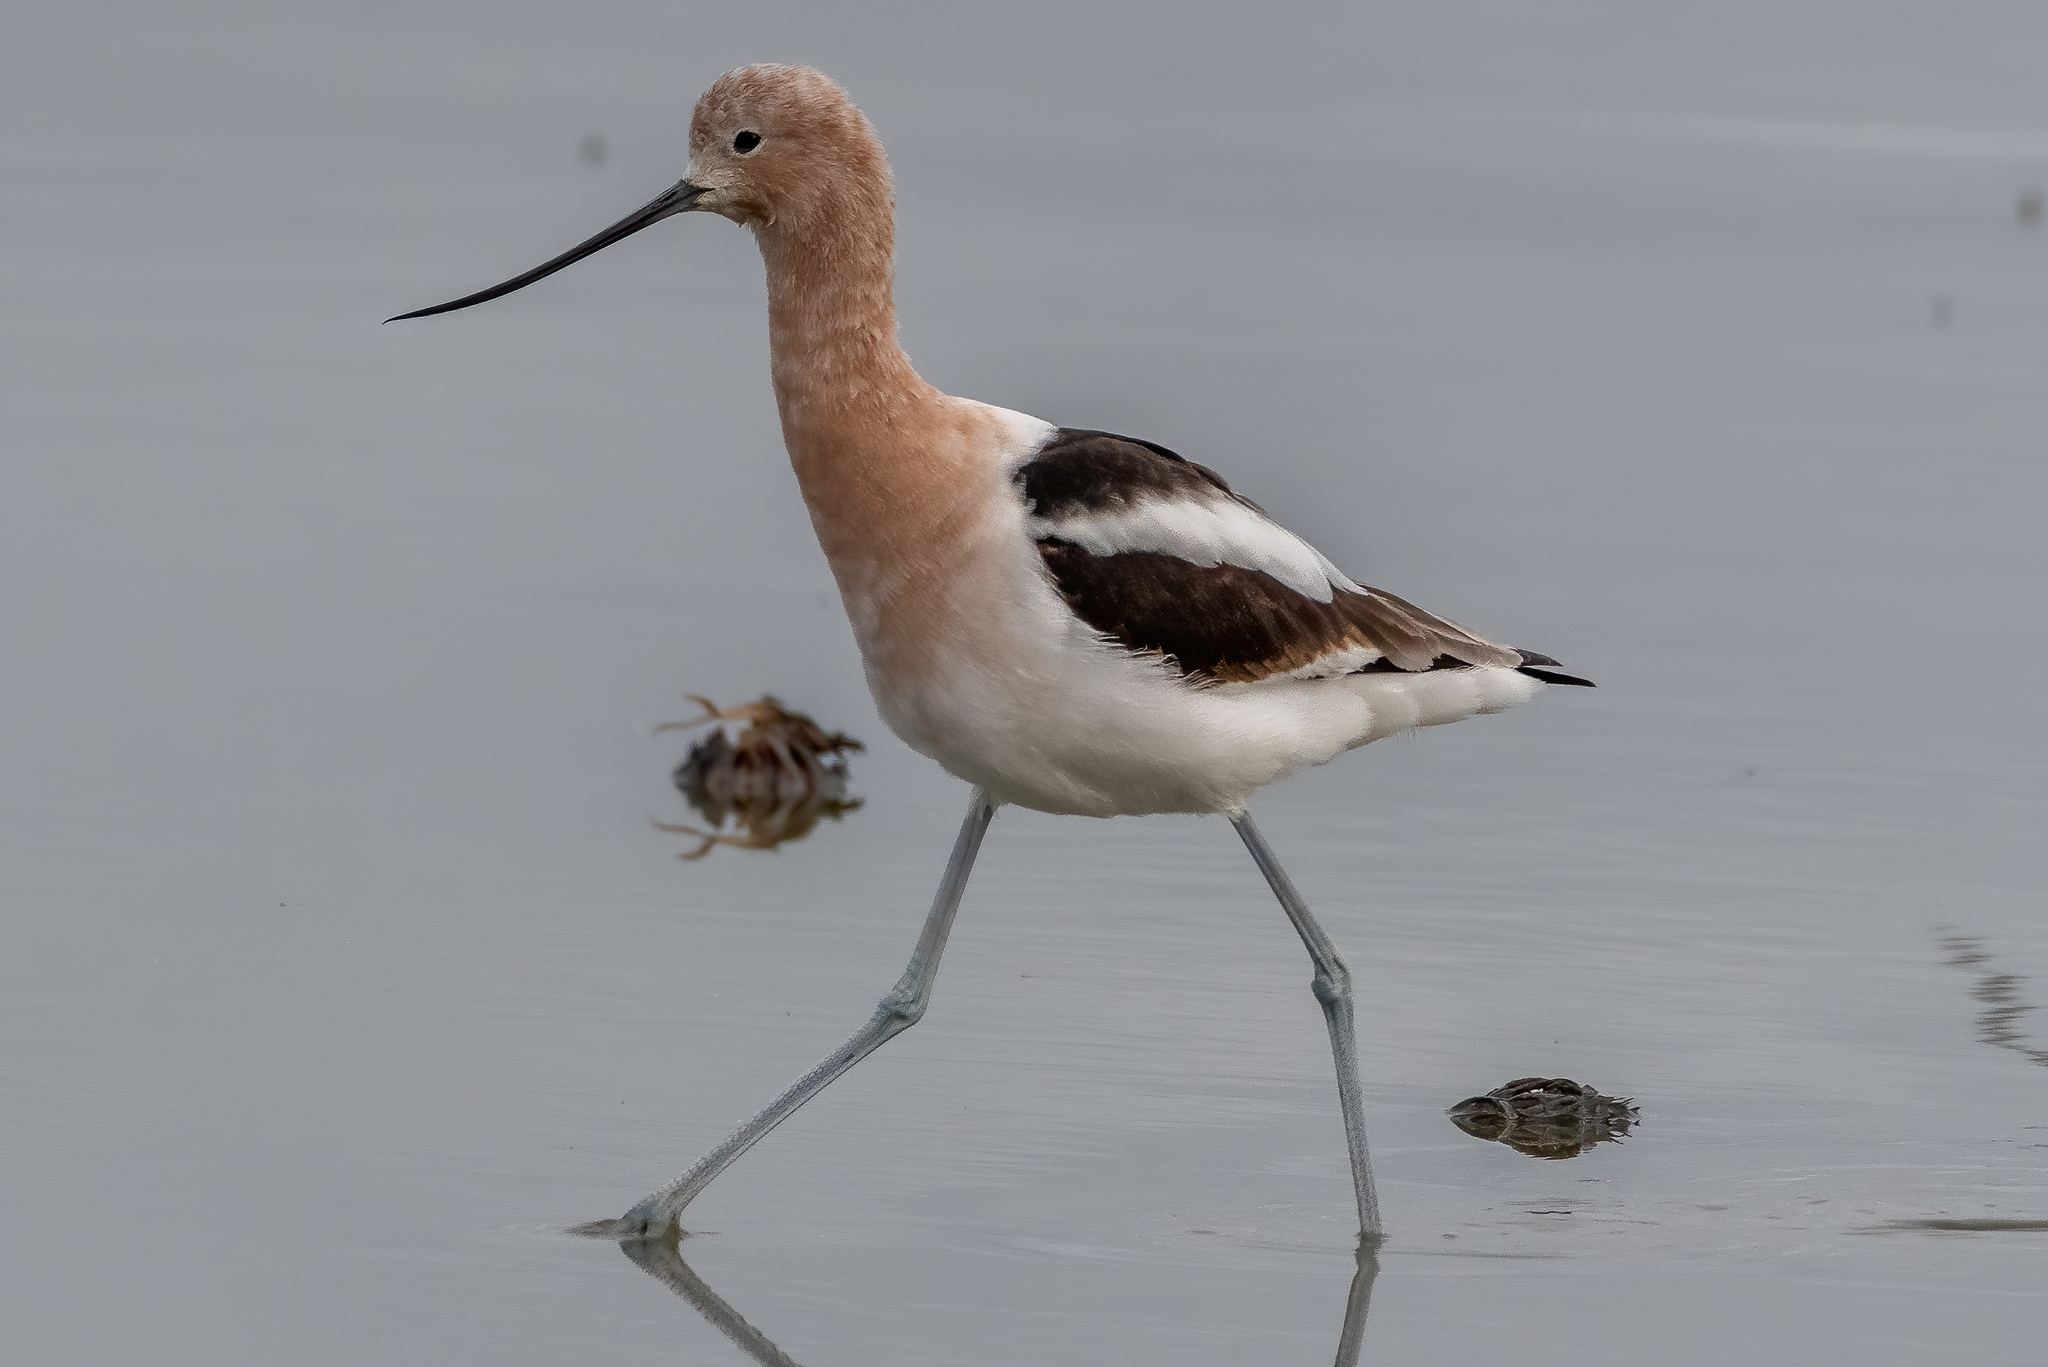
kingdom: Animalia
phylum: Chordata
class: Aves
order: Charadriiformes
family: Recurvirostridae
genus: Recurvirostra
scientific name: Recurvirostra americana
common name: American avocet
